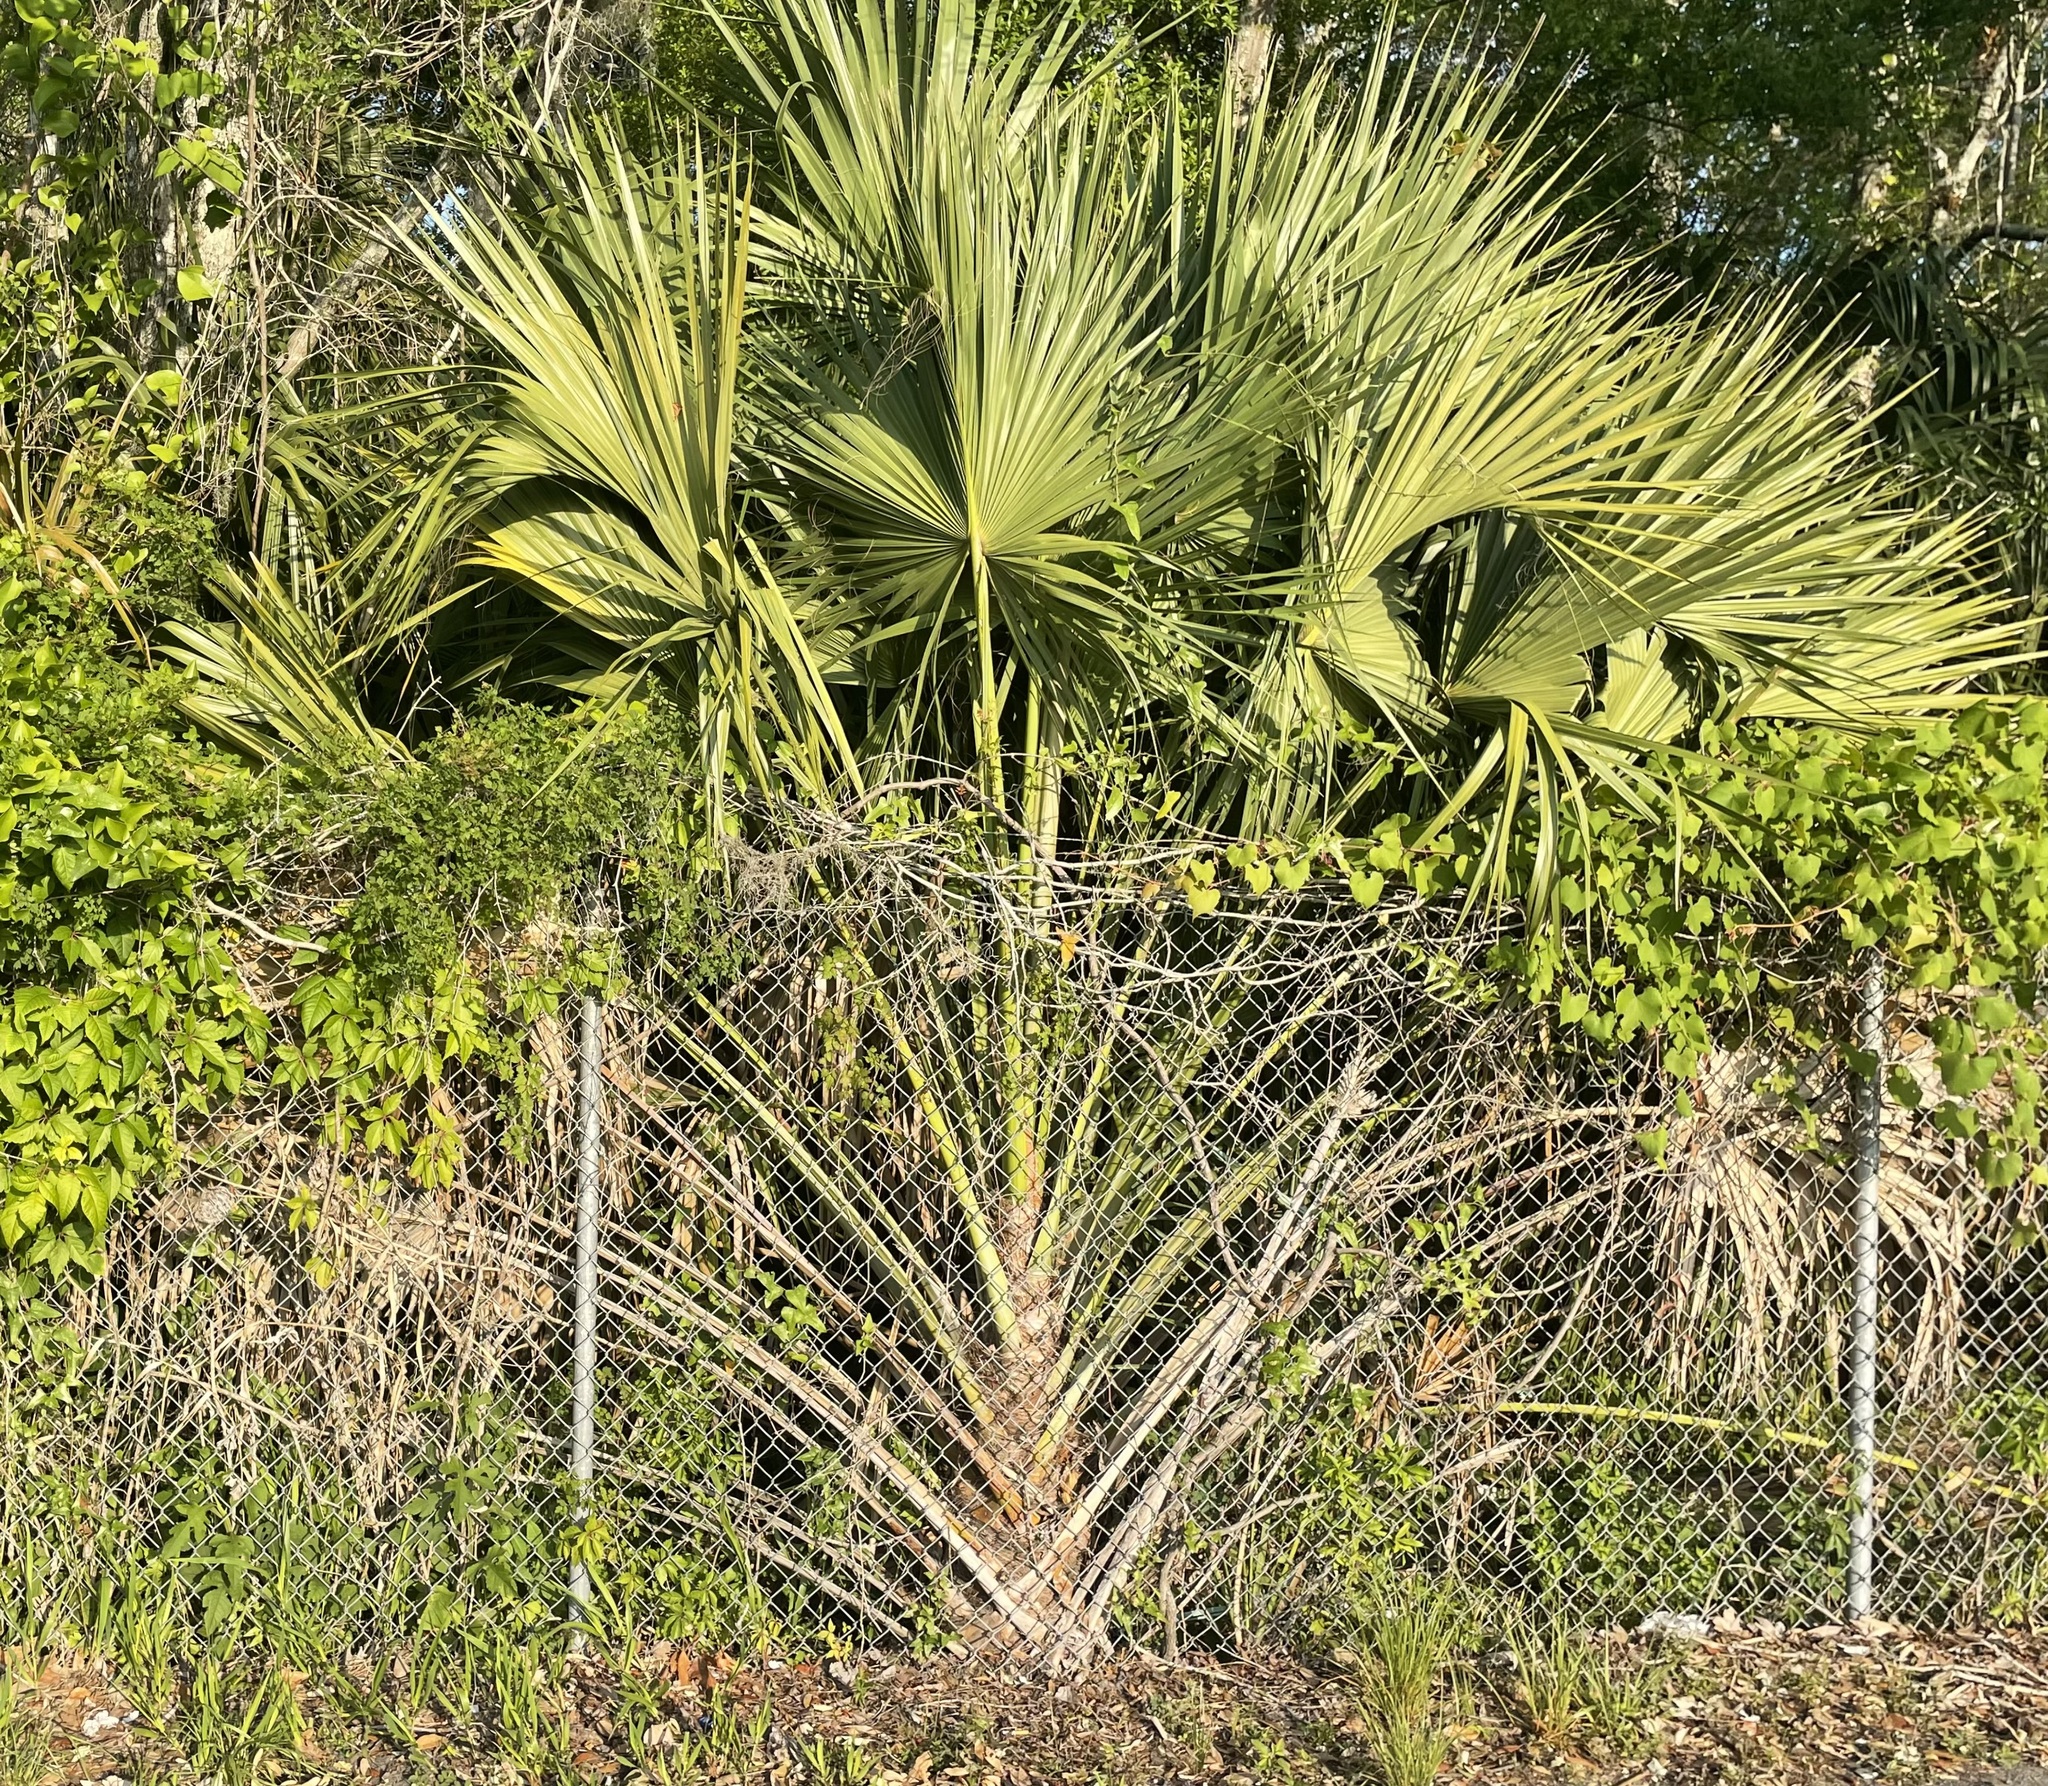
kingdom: Plantae
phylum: Tracheophyta
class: Liliopsida
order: Arecales
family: Arecaceae
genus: Sabal
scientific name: Sabal palmetto
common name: Blue palmetto
